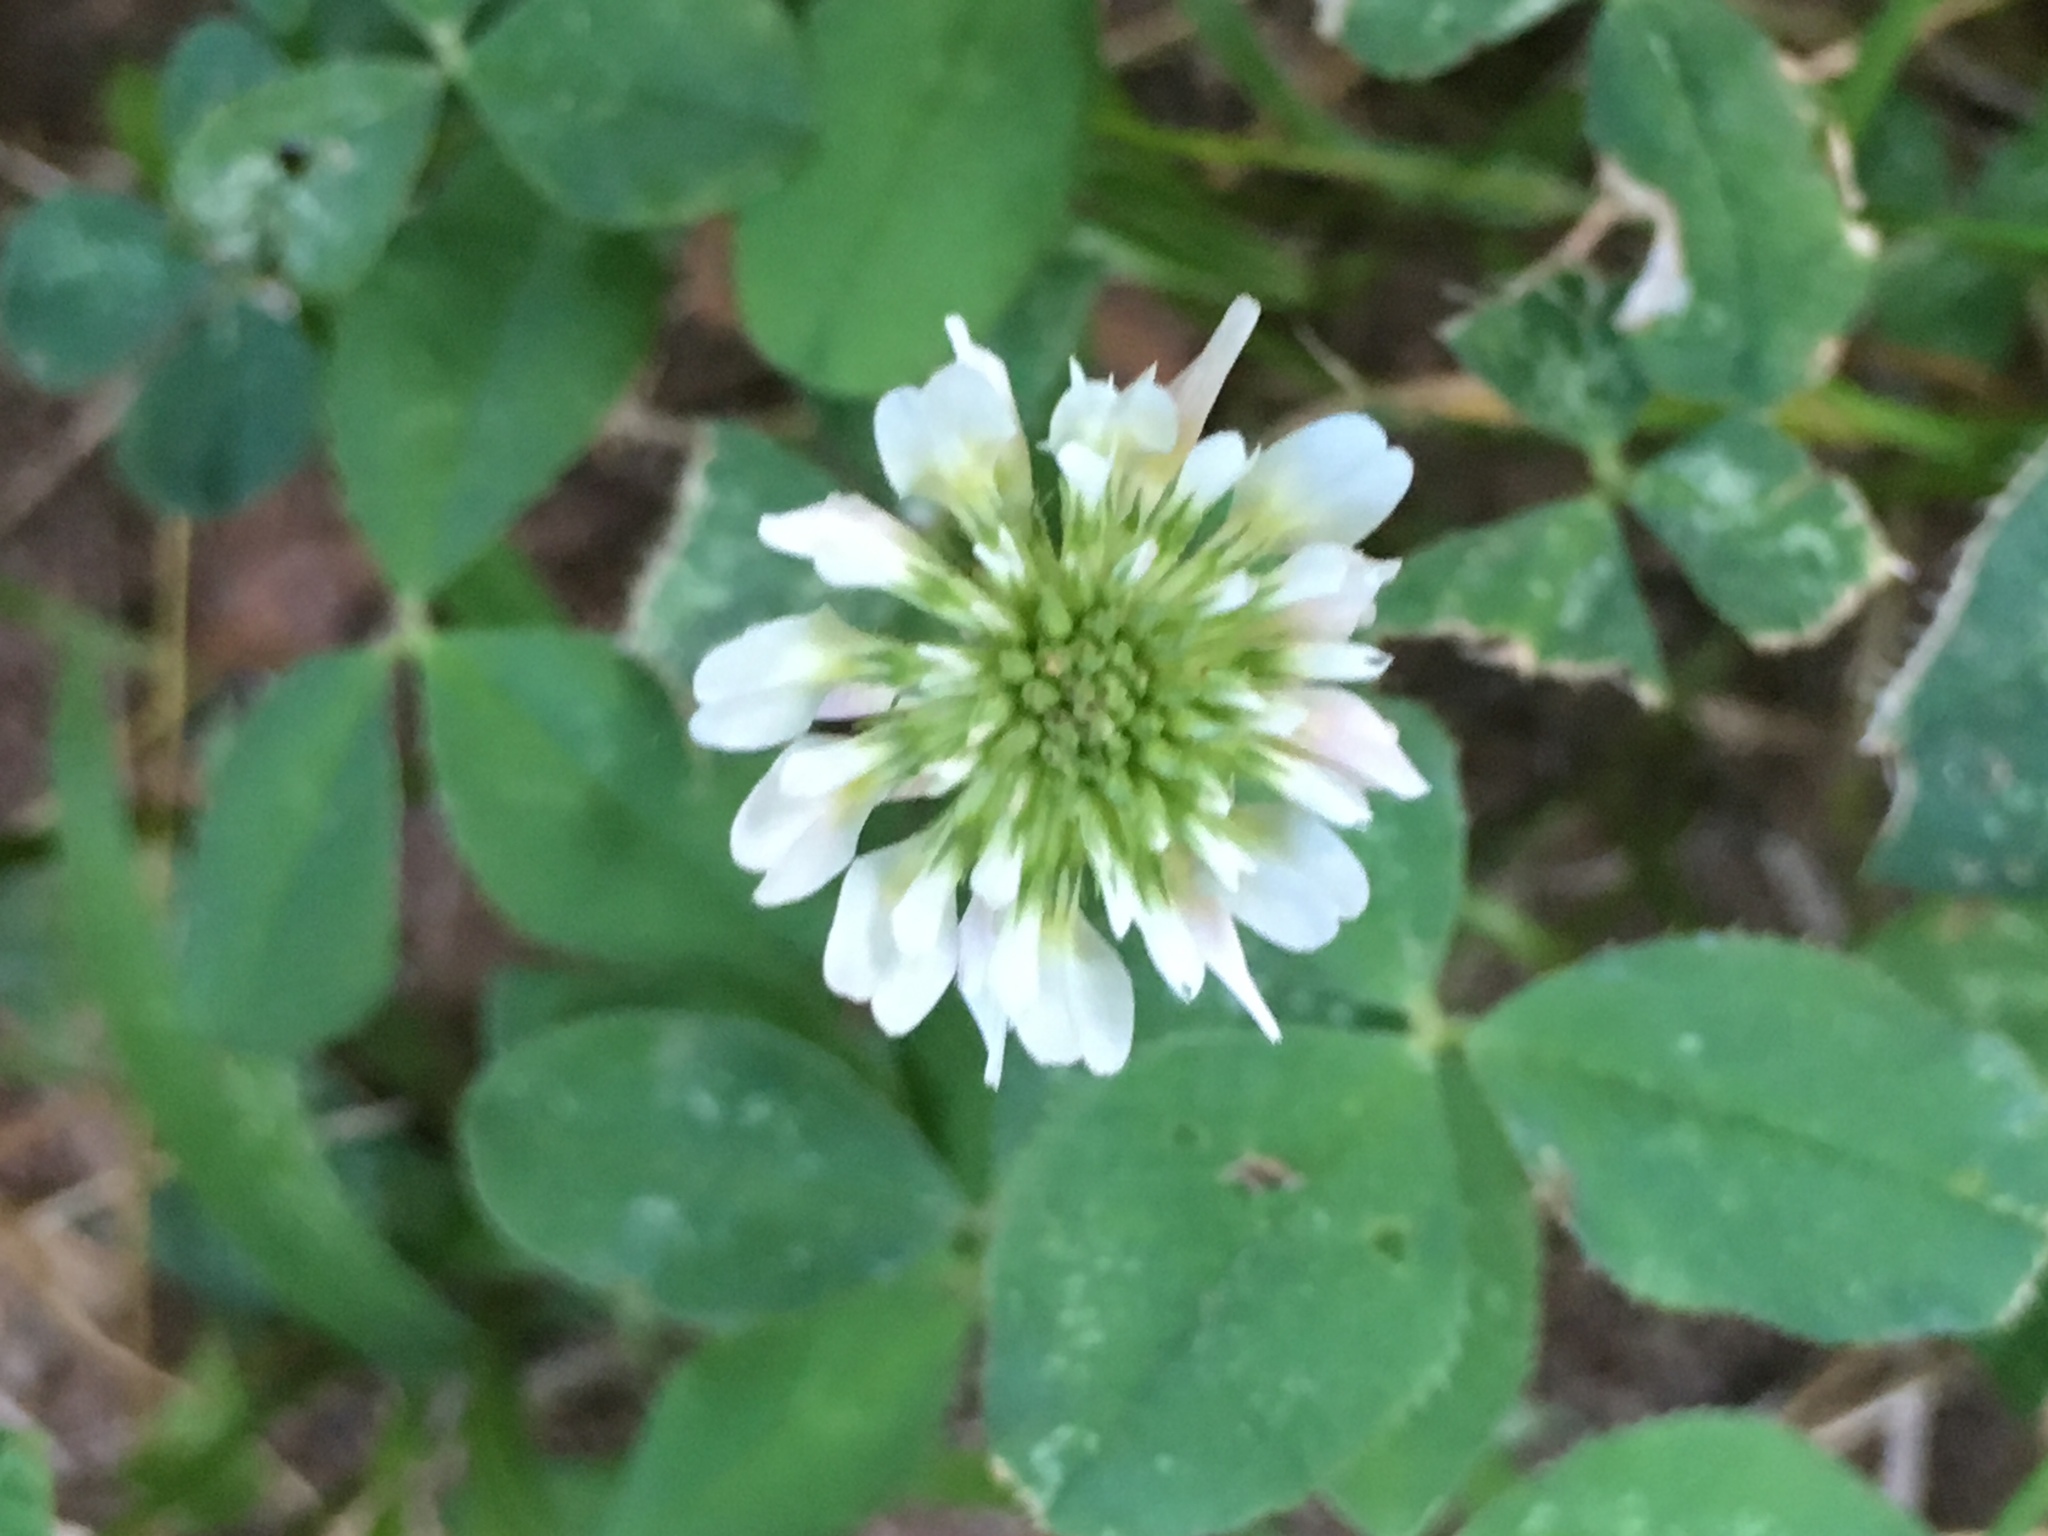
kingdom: Plantae
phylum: Tracheophyta
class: Magnoliopsida
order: Fabales
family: Fabaceae
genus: Trifolium
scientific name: Trifolium repens
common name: White clover
